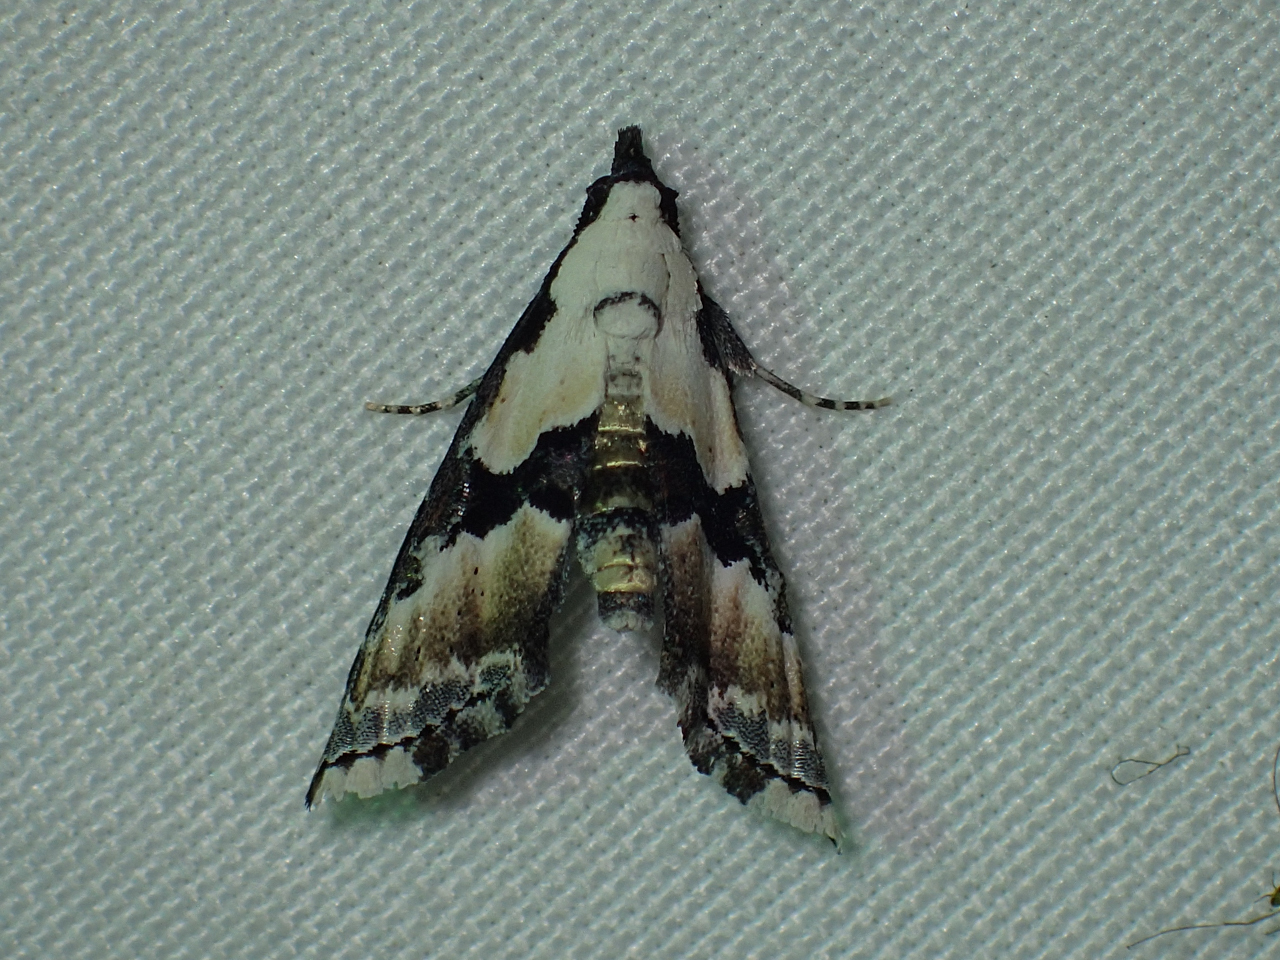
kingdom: Animalia
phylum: Arthropoda
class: Insecta
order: Lepidoptera
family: Noctuidae
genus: Nigetia
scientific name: Nigetia formosalis
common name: Thin-winged owlet
